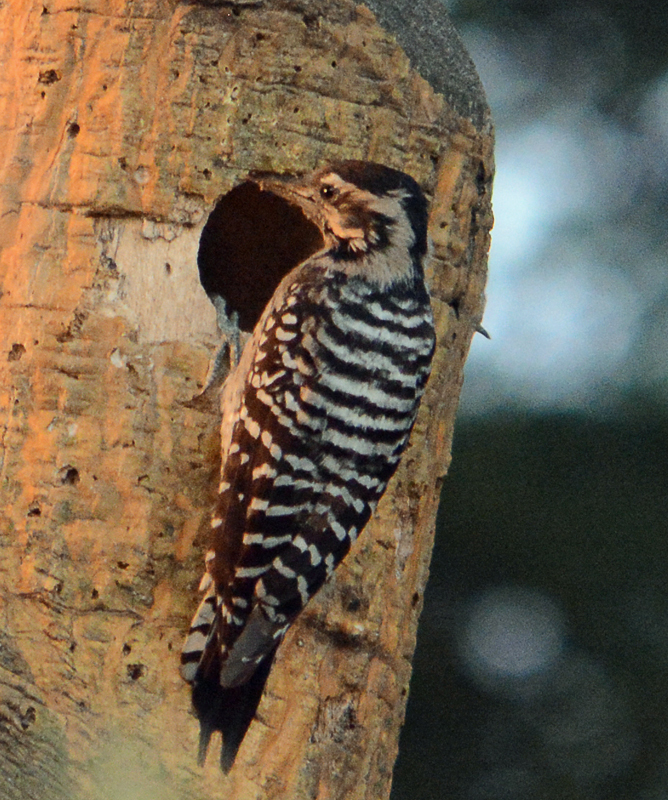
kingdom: Animalia
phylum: Chordata
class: Aves
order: Piciformes
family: Picidae
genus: Dryobates
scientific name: Dryobates scalaris
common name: Ladder-backed woodpecker
